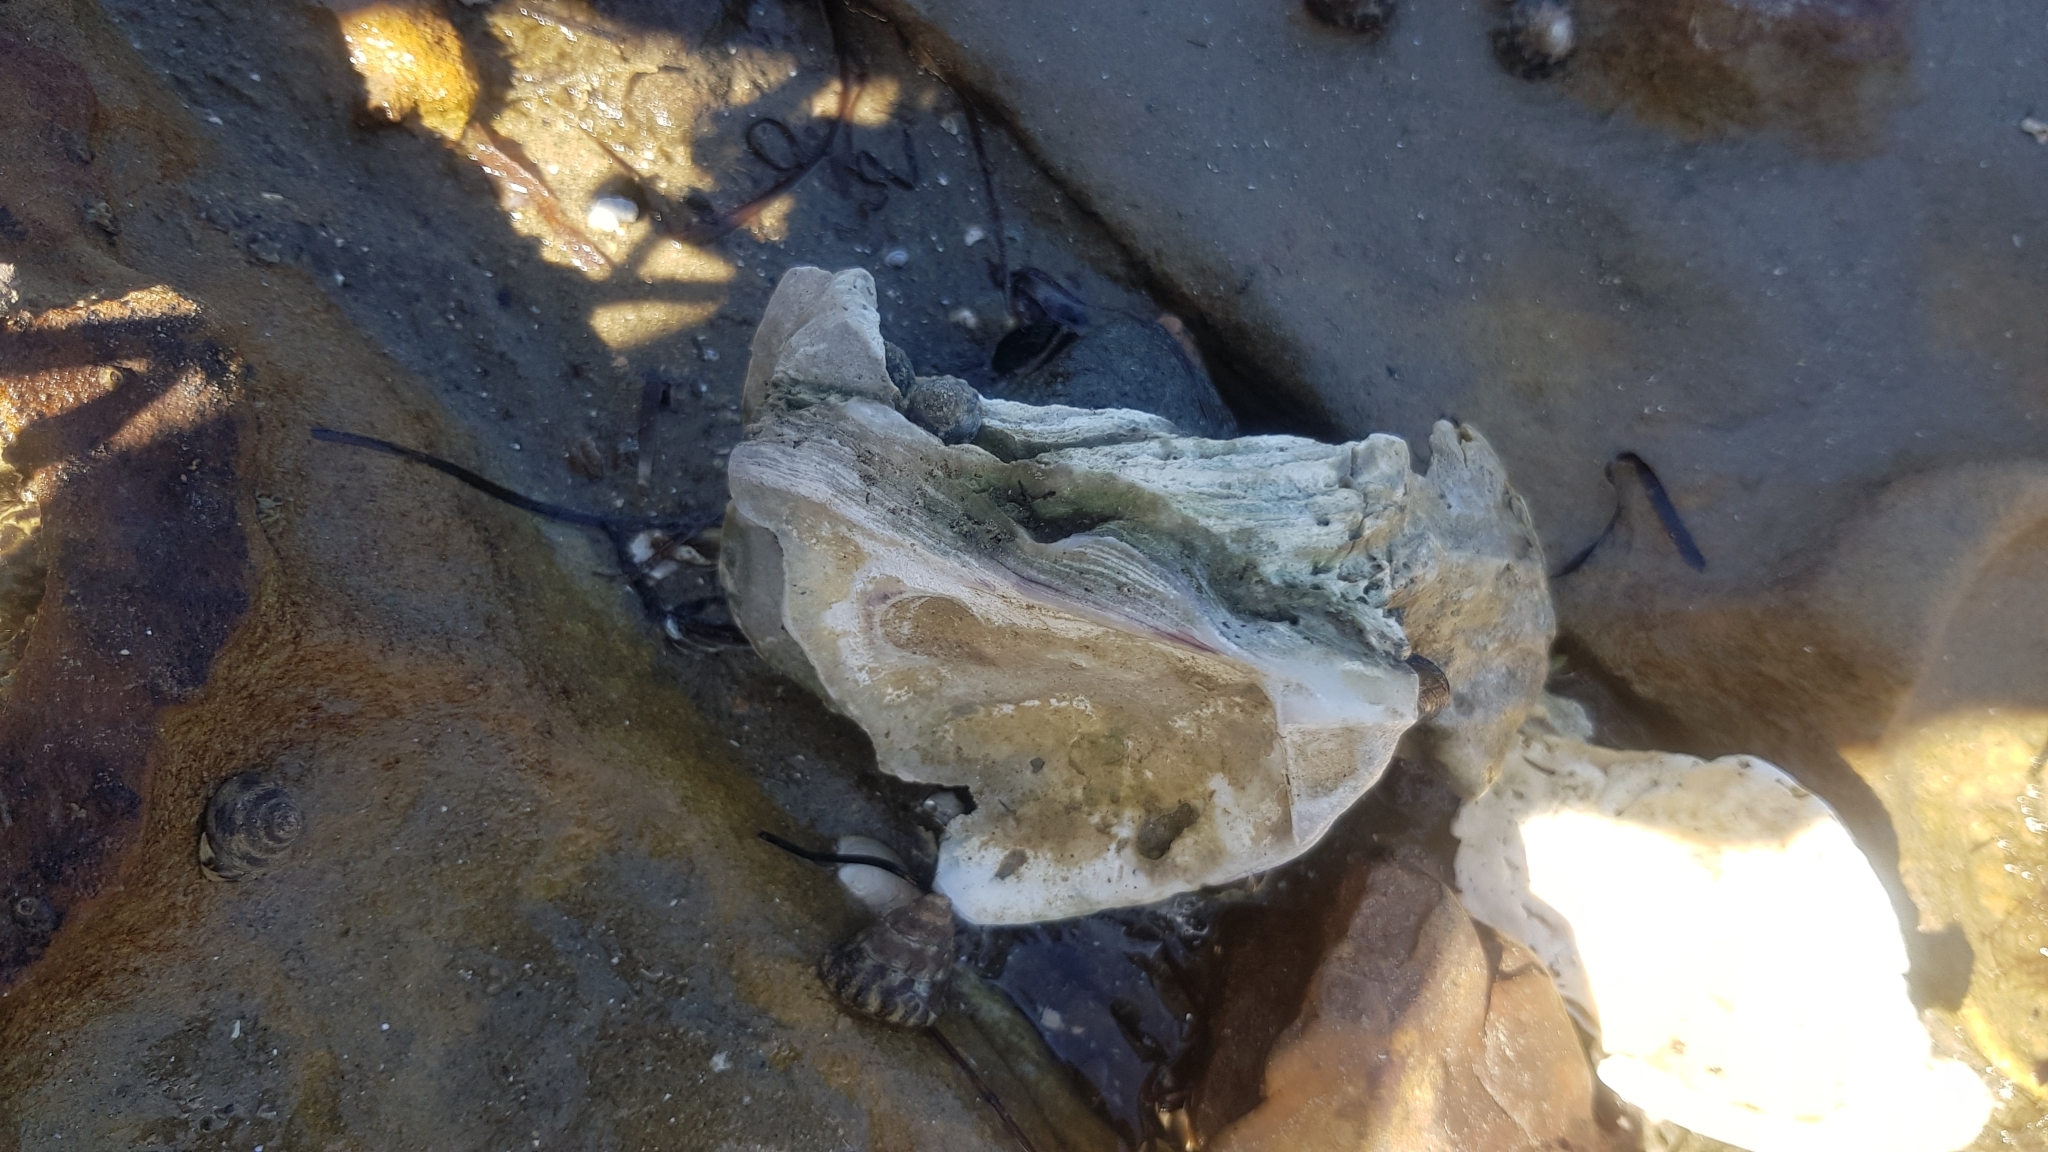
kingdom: Animalia
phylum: Mollusca
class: Bivalvia
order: Ostreida
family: Ostreidae
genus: Magallana
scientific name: Magallana gigas
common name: Pacific oyster
